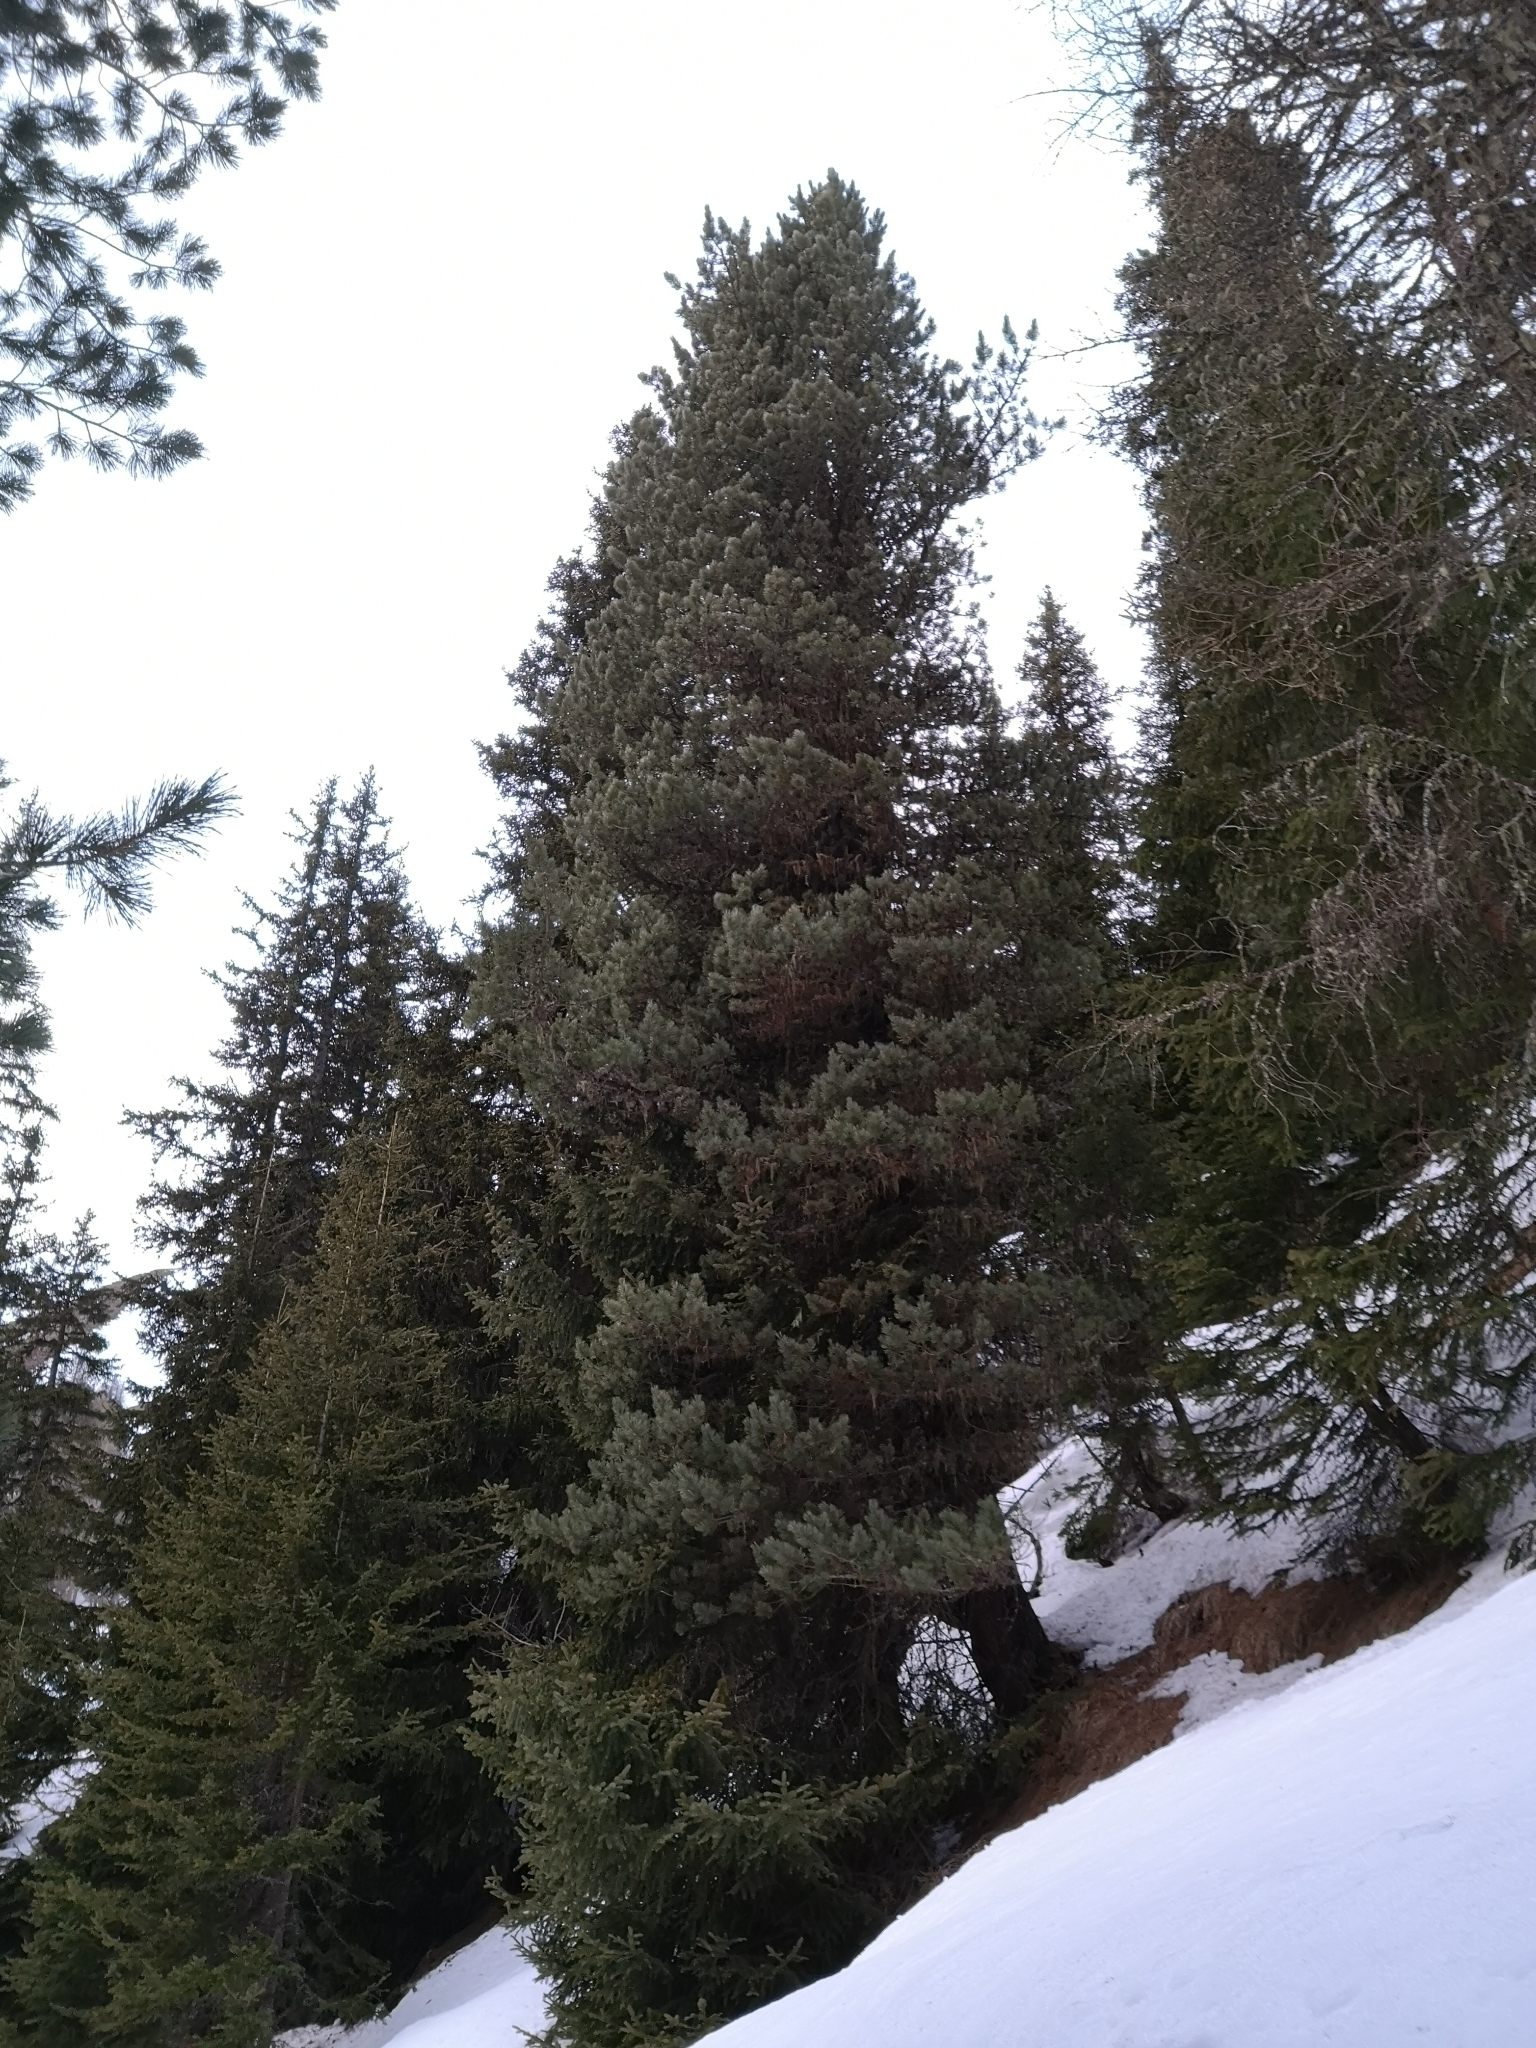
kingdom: Plantae
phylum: Tracheophyta
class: Pinopsida
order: Pinales
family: Pinaceae
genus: Pinus
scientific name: Pinus cembra
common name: Arolla pine
